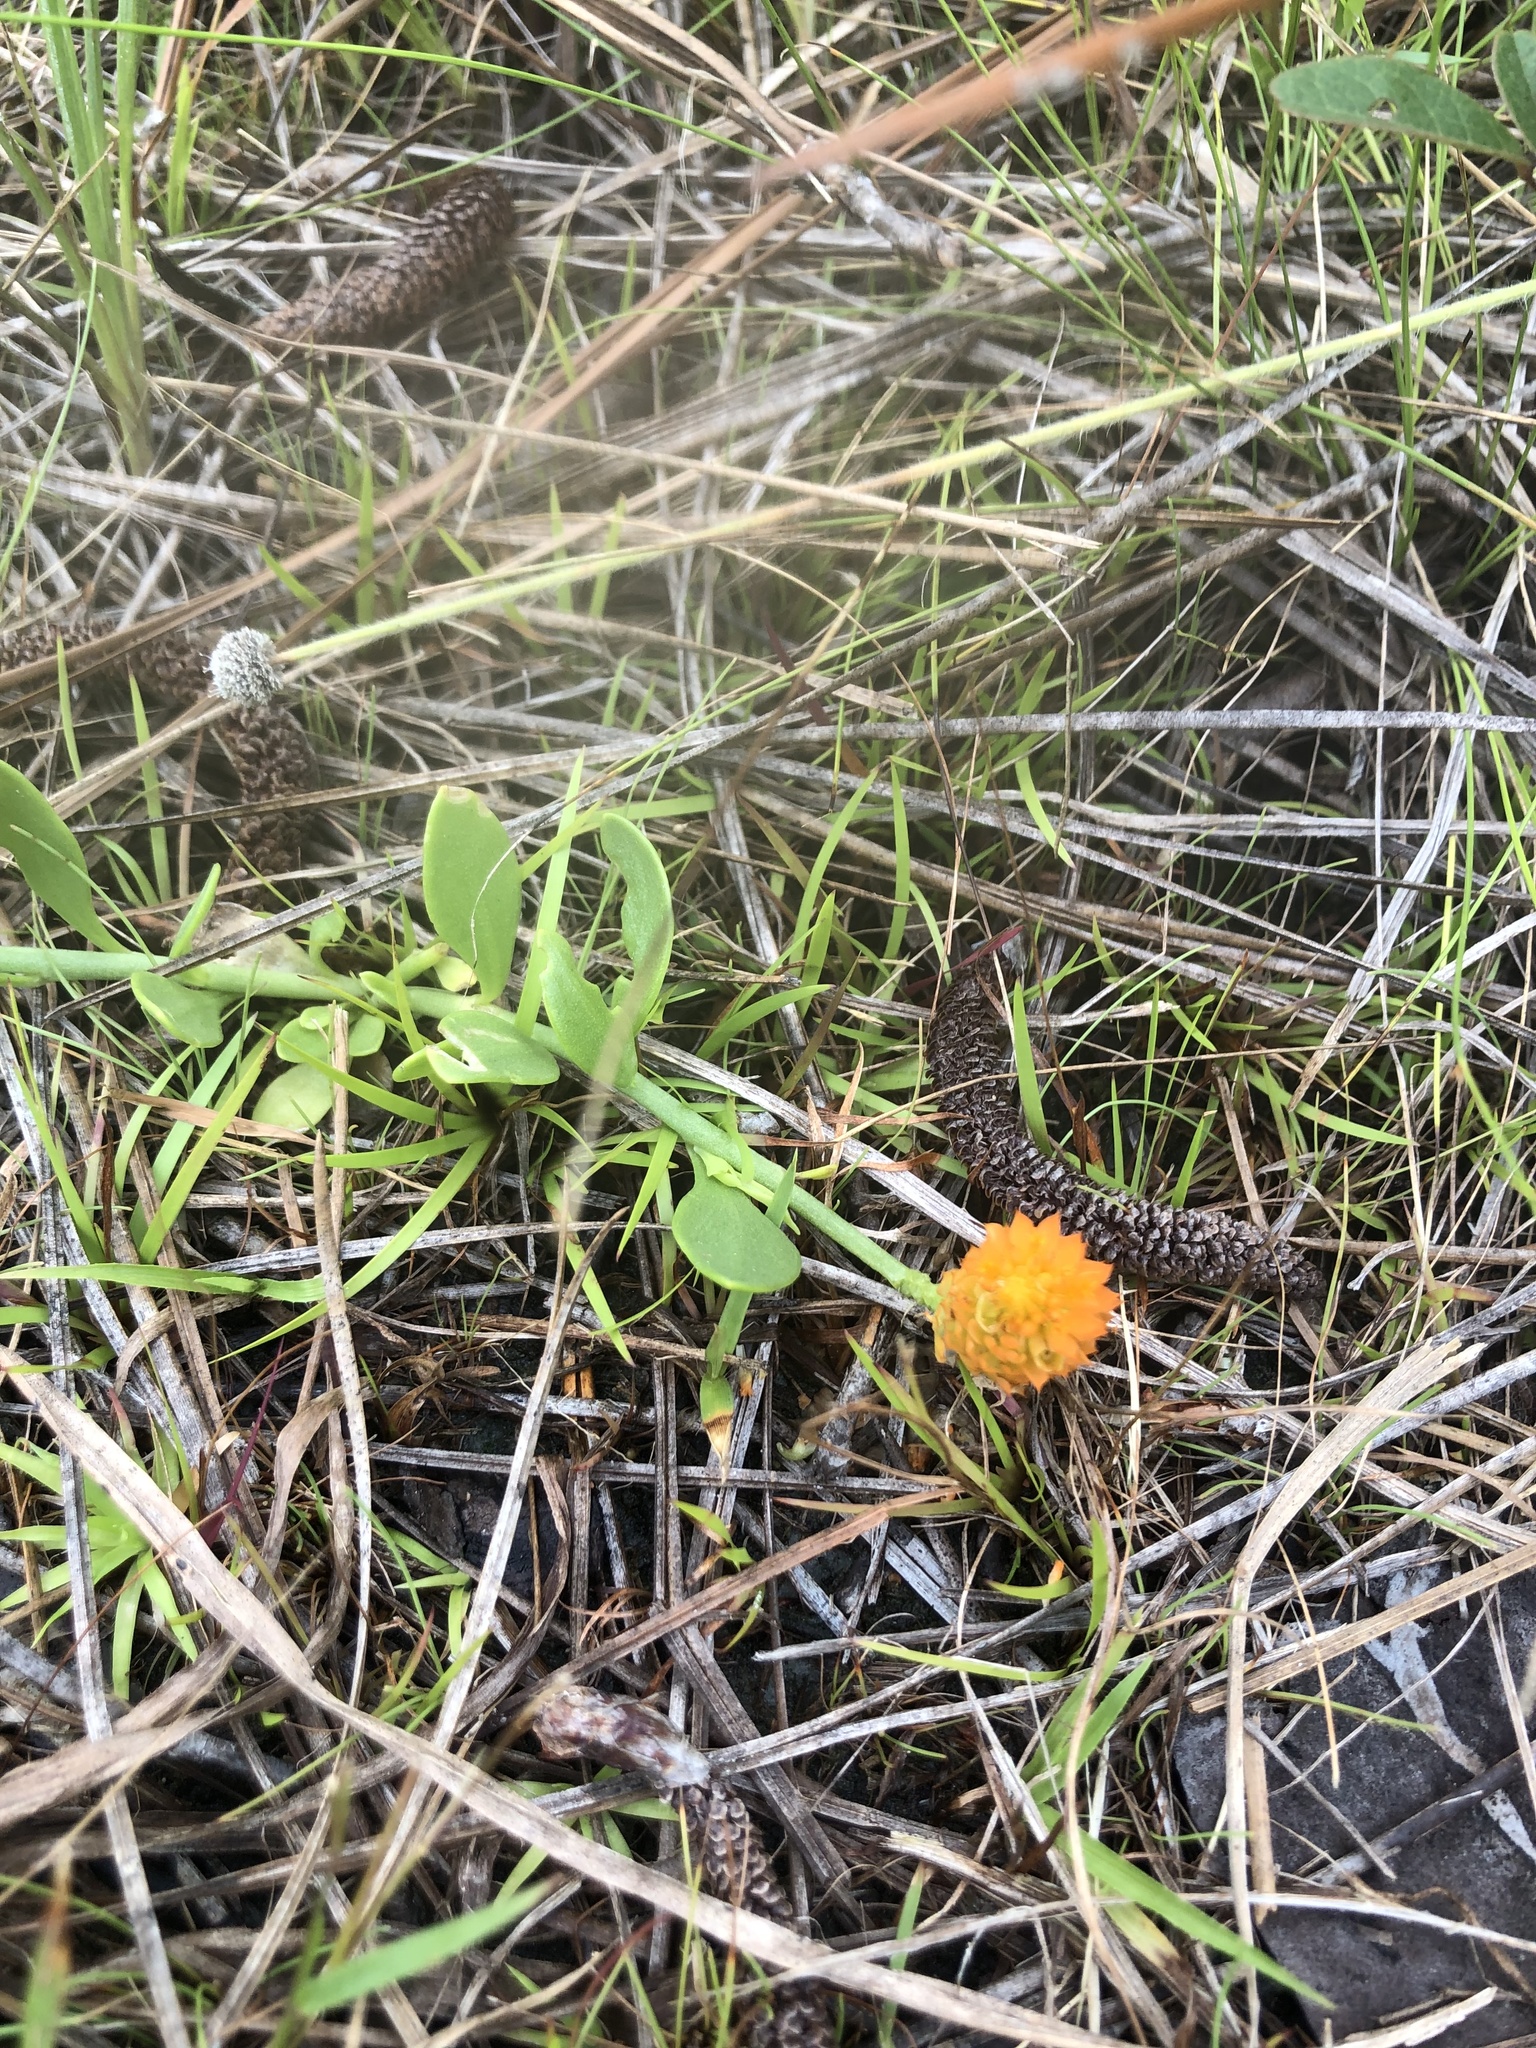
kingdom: Plantae
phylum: Tracheophyta
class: Magnoliopsida
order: Fabales
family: Polygalaceae
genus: Polygala
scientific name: Polygala lutea
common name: Orange milkwort
